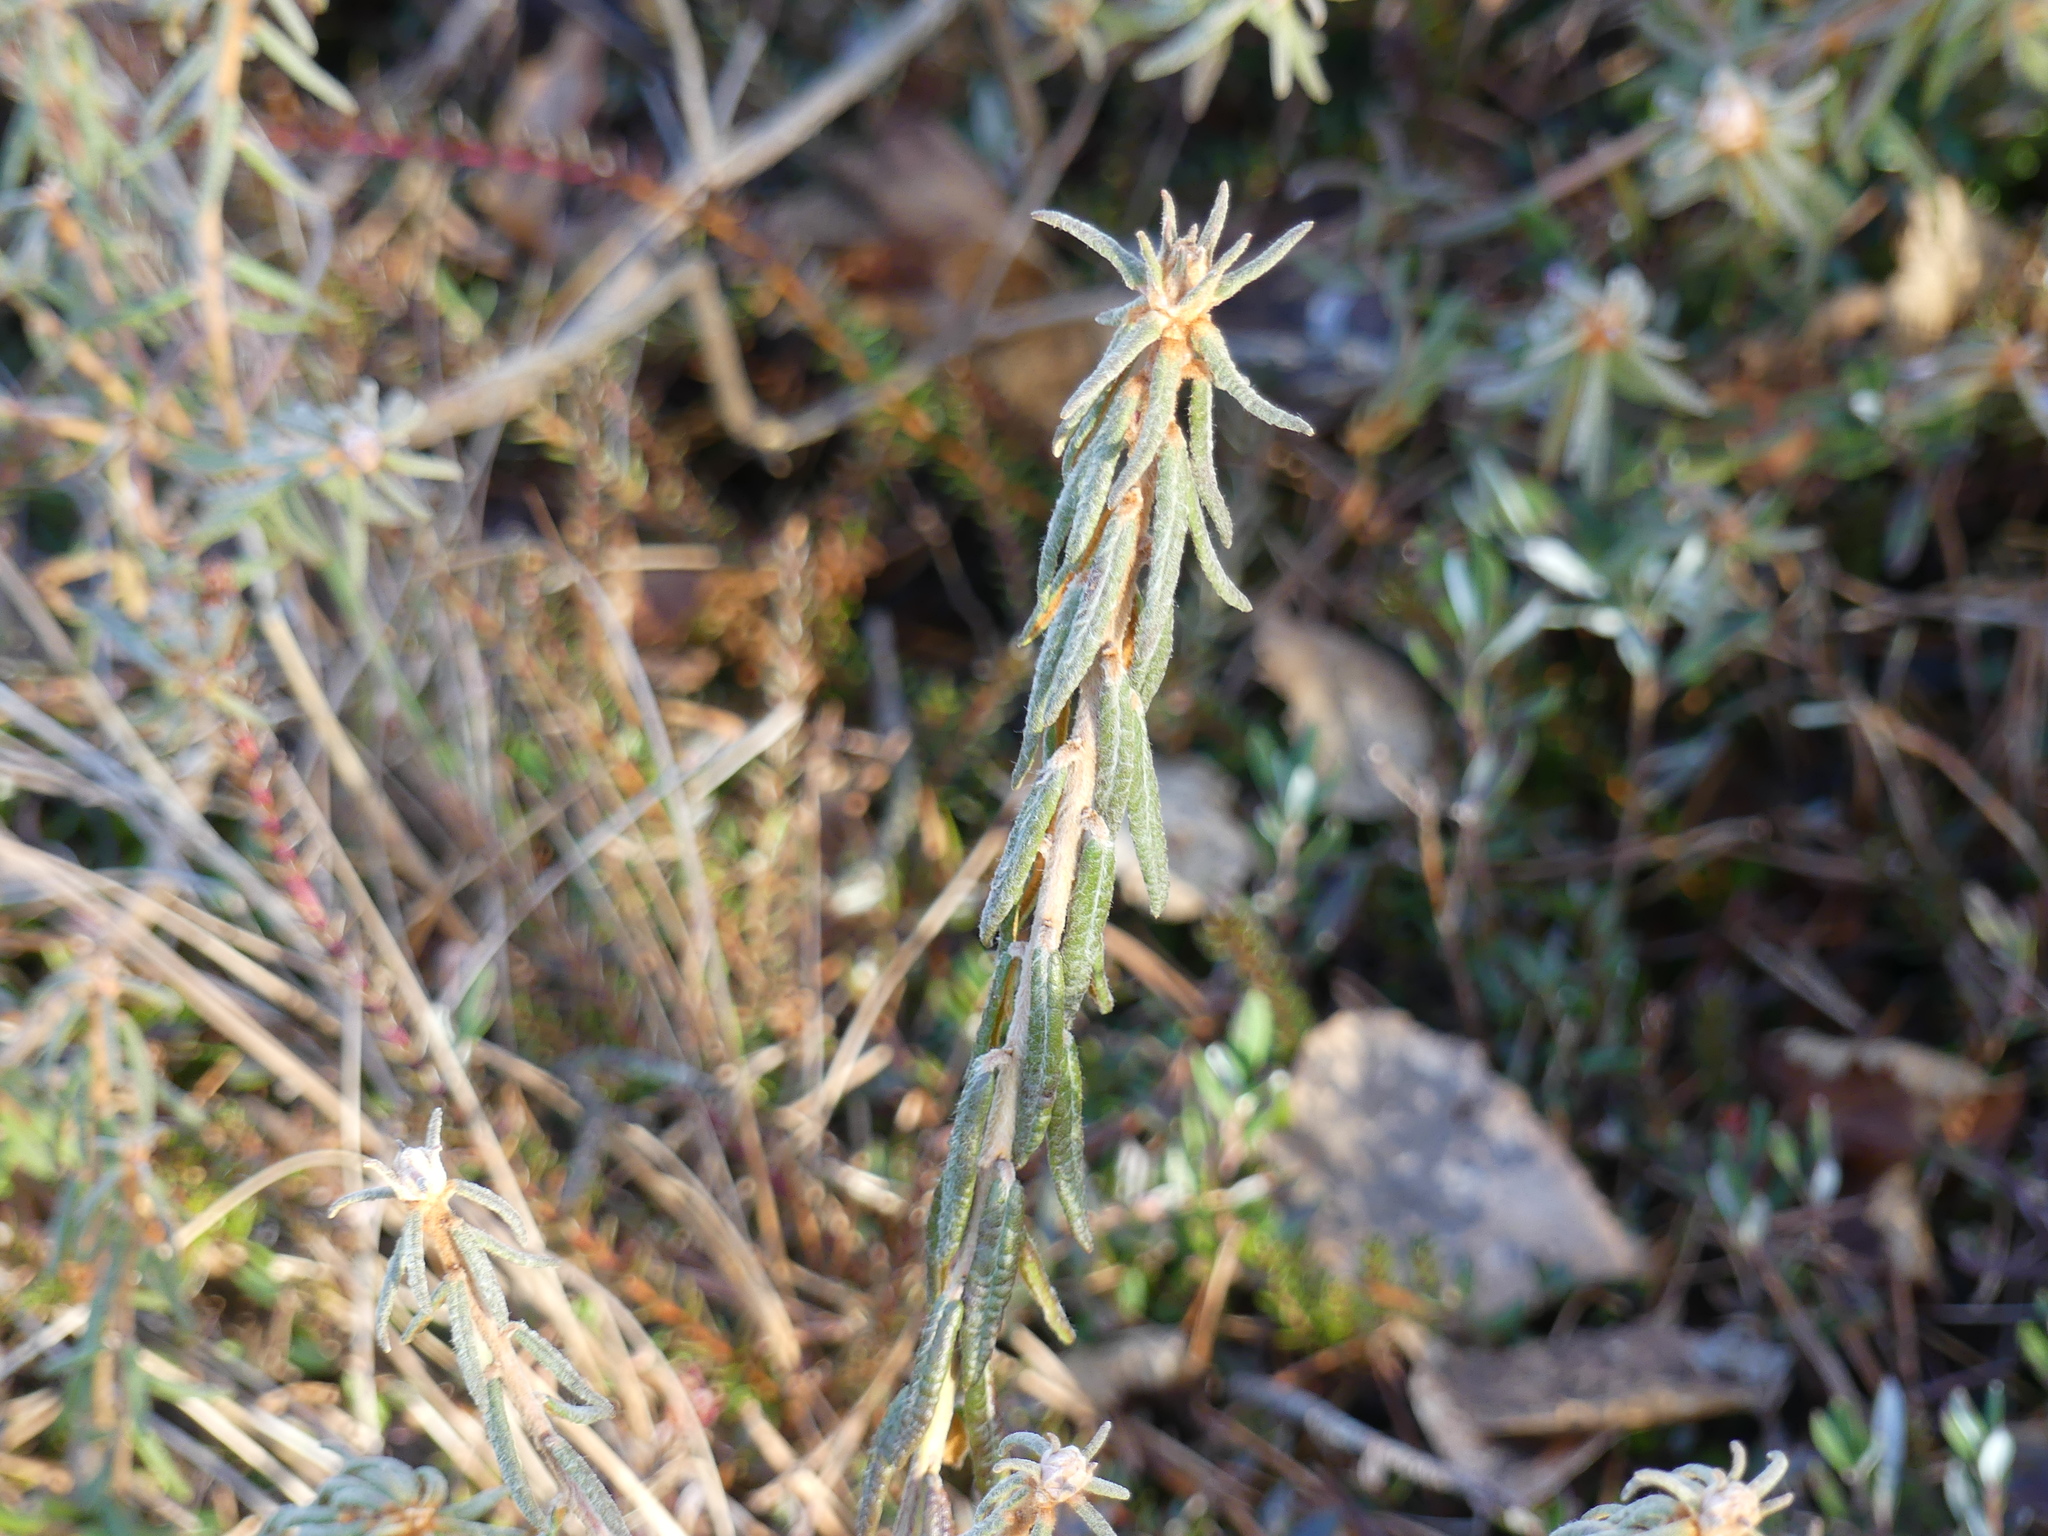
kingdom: Plantae
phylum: Tracheophyta
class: Magnoliopsida
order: Ericales
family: Ericaceae
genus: Rhododendron
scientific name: Rhododendron tomentosum
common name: Marsh labrador tea
